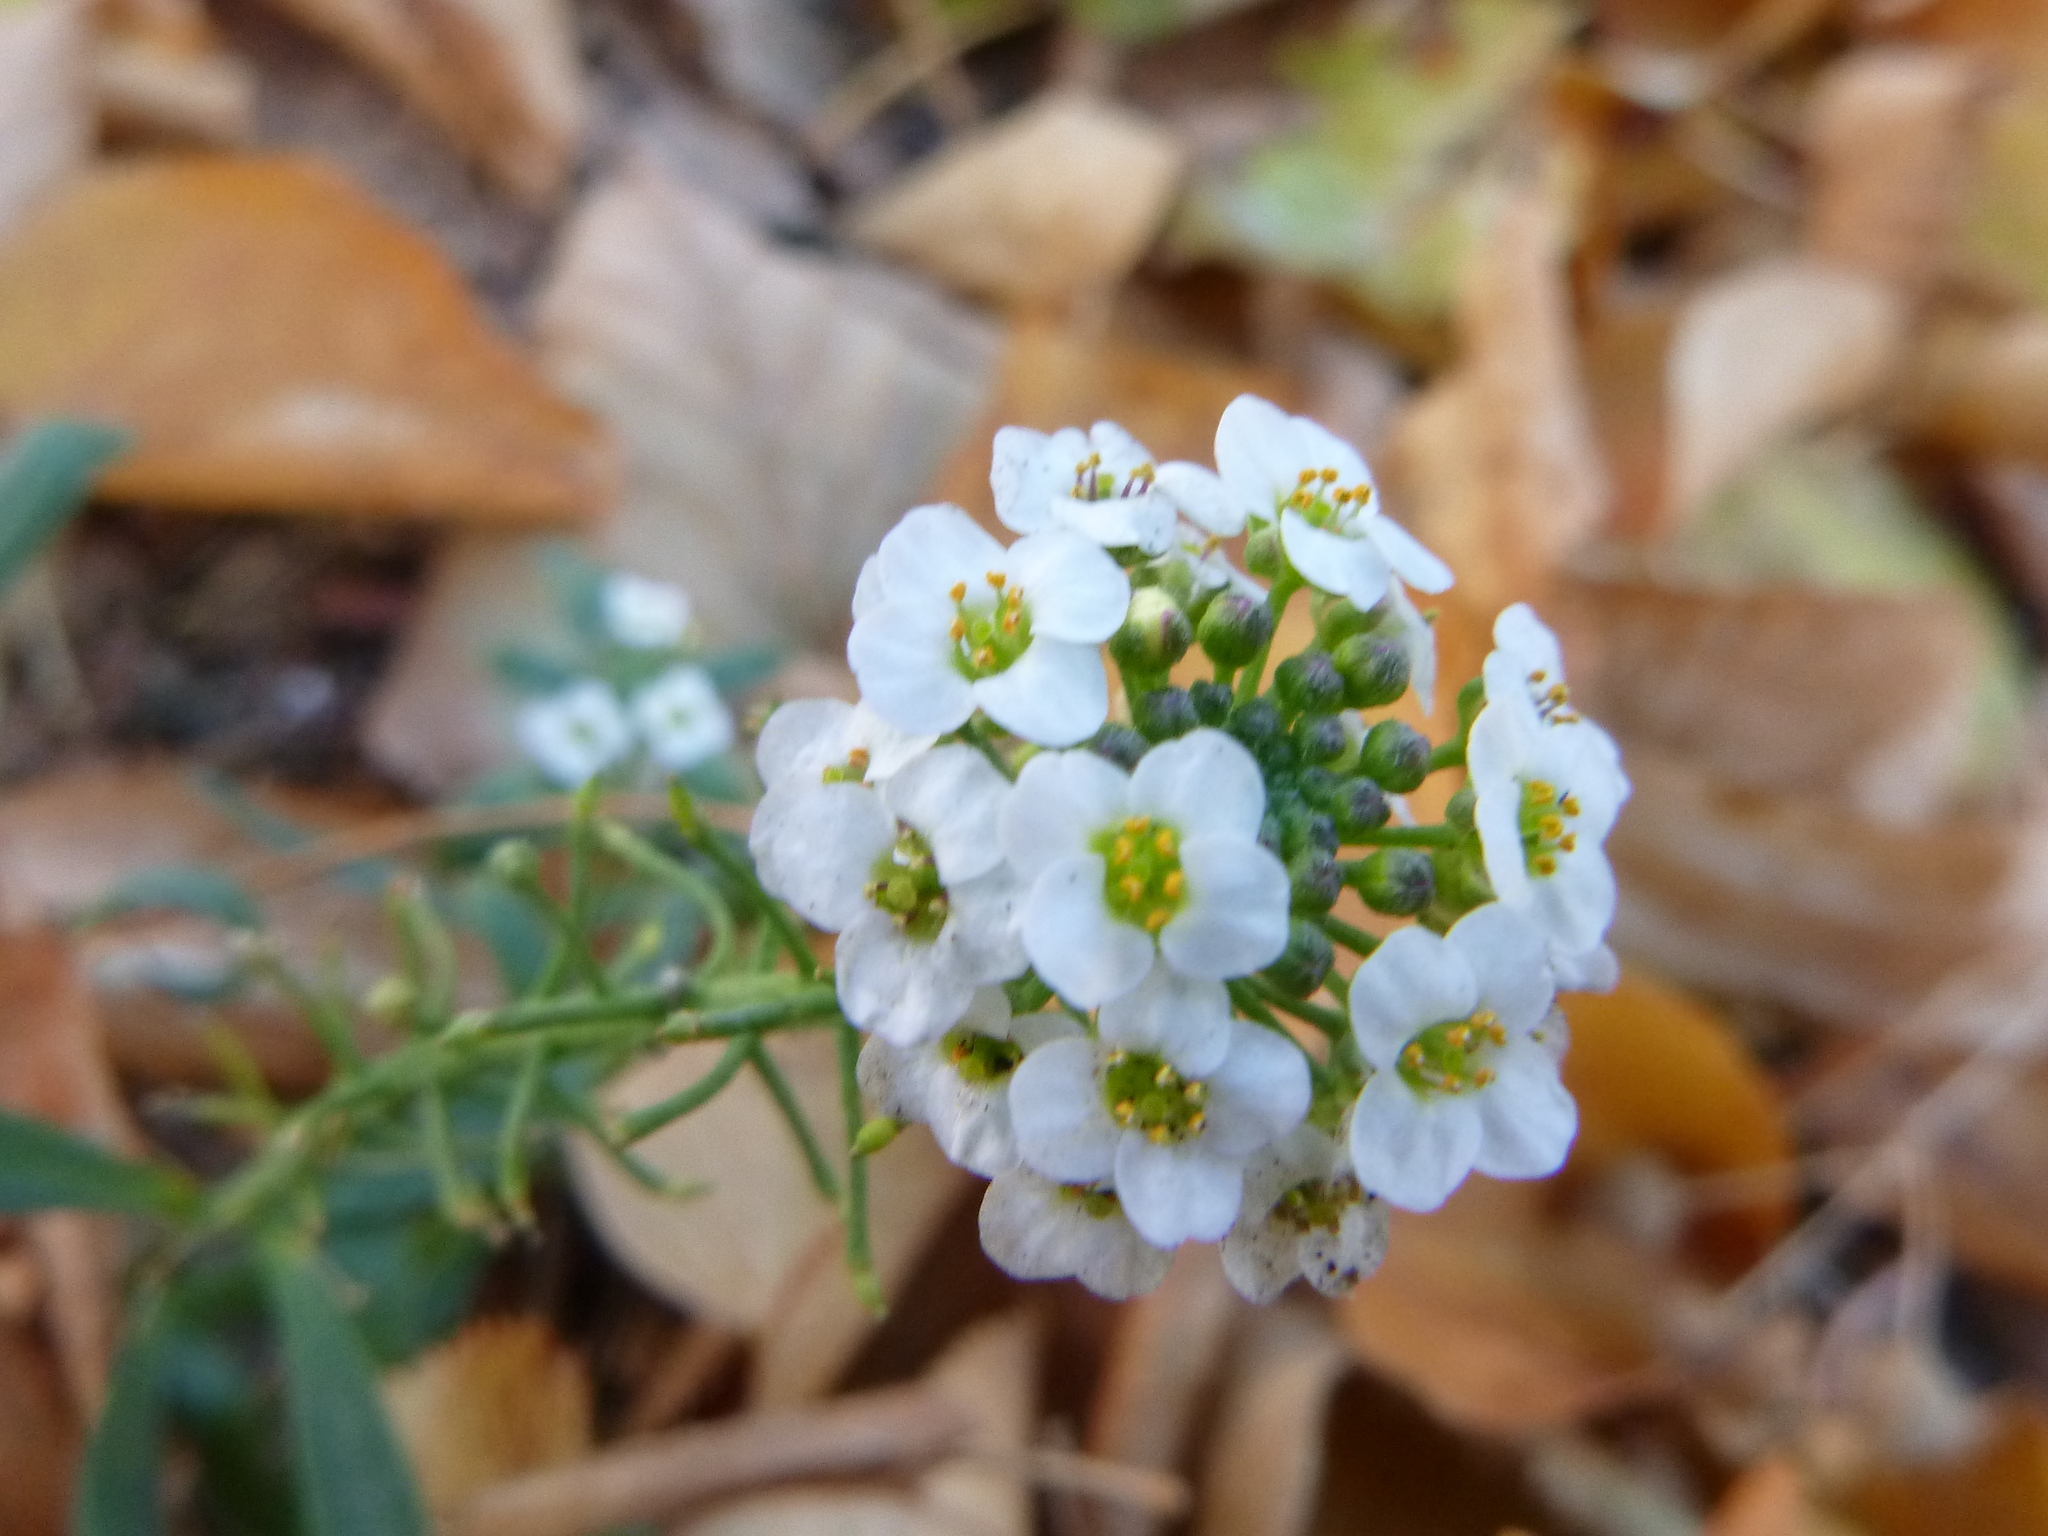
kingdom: Plantae
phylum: Tracheophyta
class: Magnoliopsida
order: Brassicales
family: Brassicaceae
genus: Lobularia
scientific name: Lobularia maritima
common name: Sweet alison
